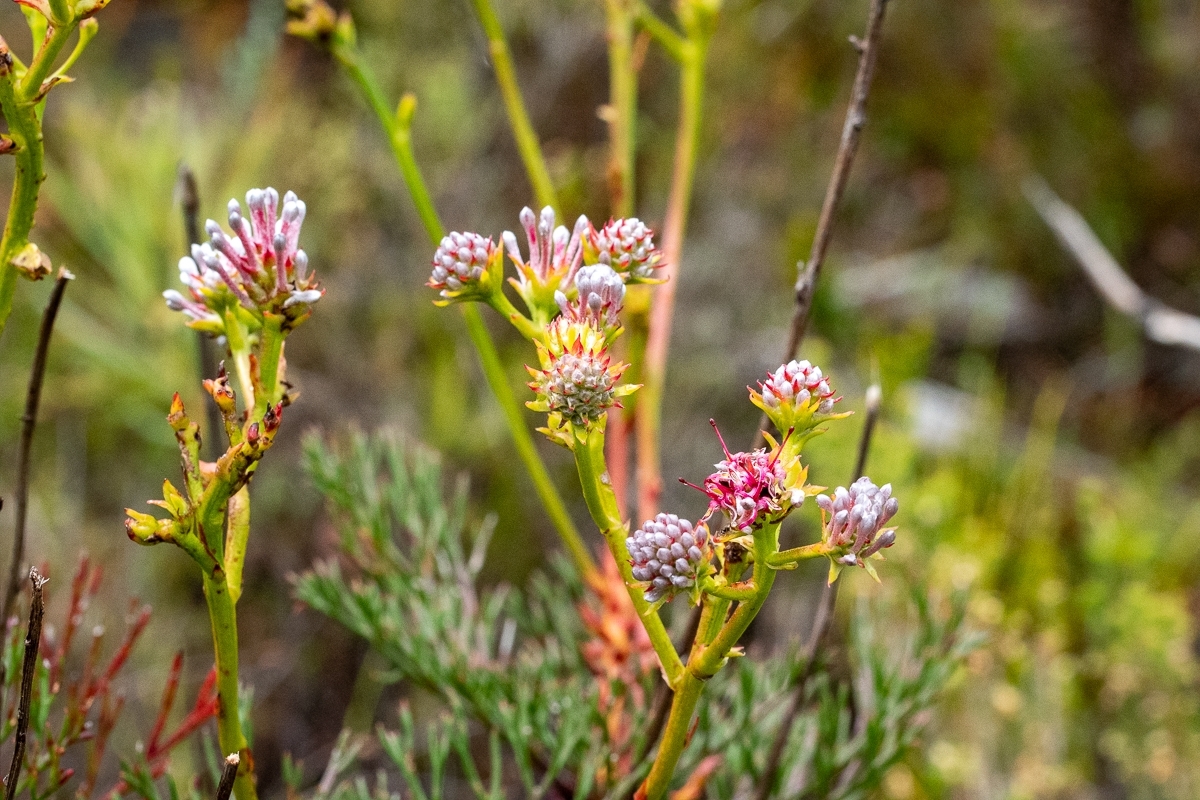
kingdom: Plantae
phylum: Tracheophyta
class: Magnoliopsida
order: Proteales
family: Proteaceae
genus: Serruria
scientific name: Serruria elongata
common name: Long-stalk spiderhead
